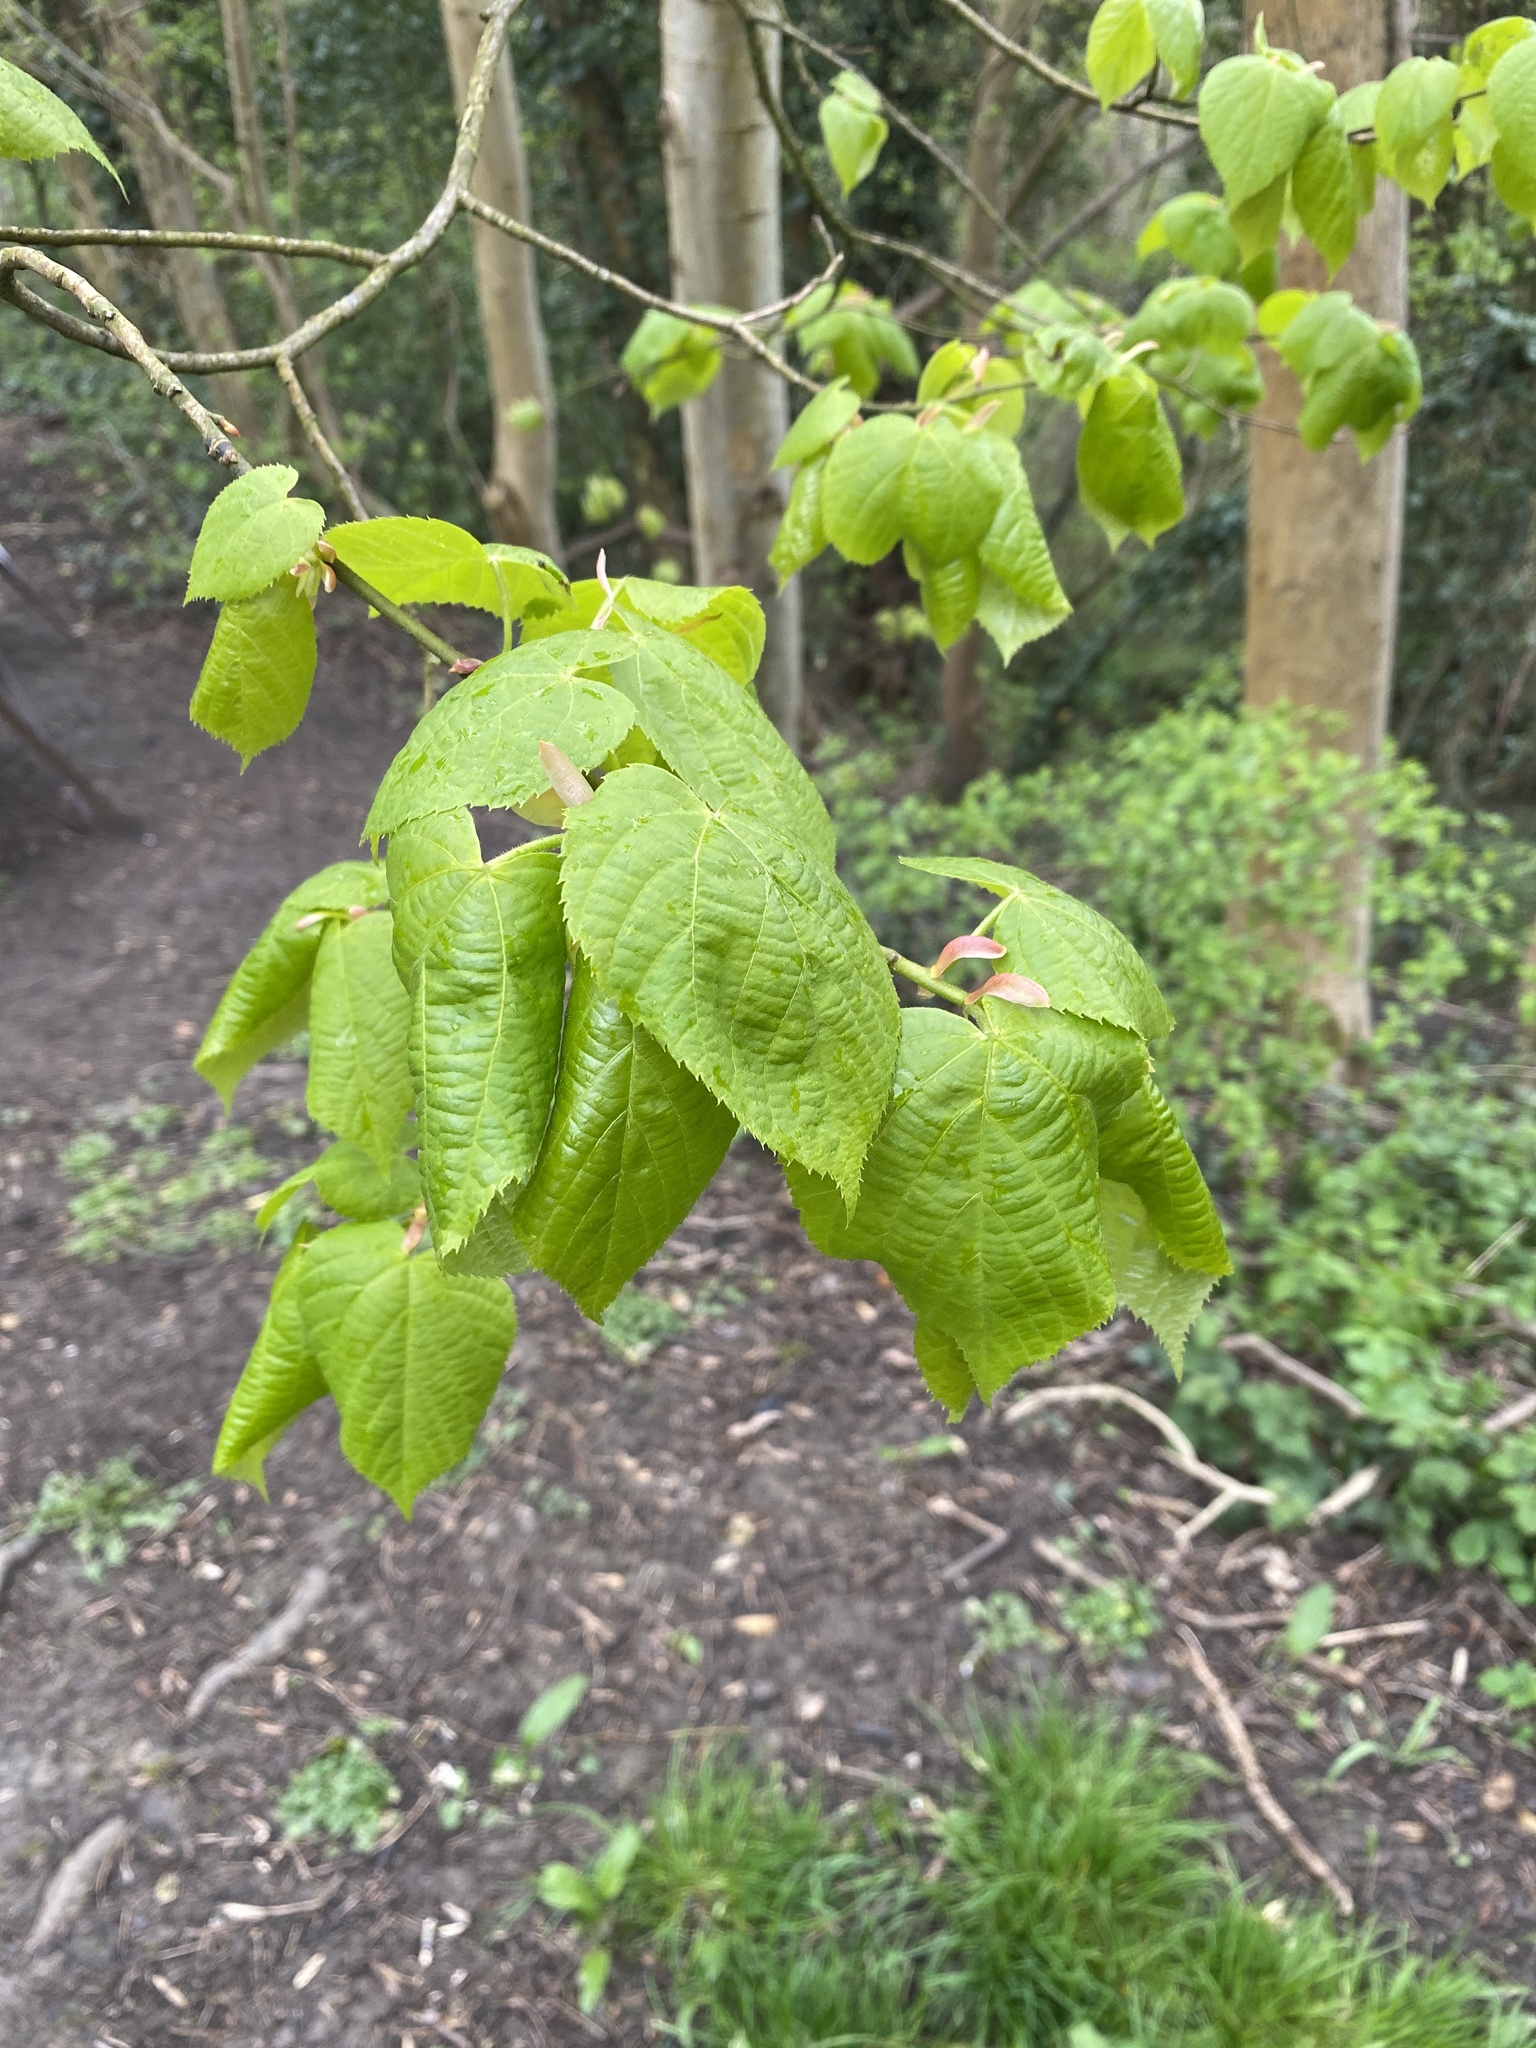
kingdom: Plantae
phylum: Tracheophyta
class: Magnoliopsida
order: Malvales
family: Malvaceae
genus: Tilia
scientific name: Tilia cordata
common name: Small-leaved lime
